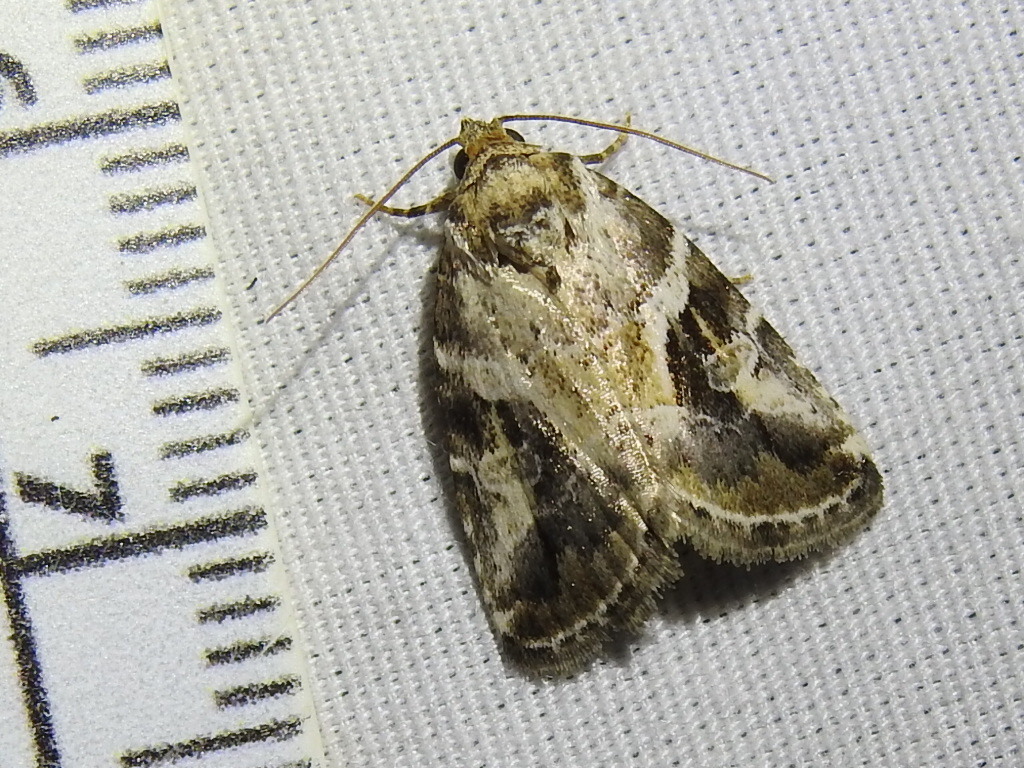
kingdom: Animalia
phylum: Arthropoda
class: Insecta
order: Lepidoptera
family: Noctuidae
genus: Diastema
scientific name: Diastema cnossia
